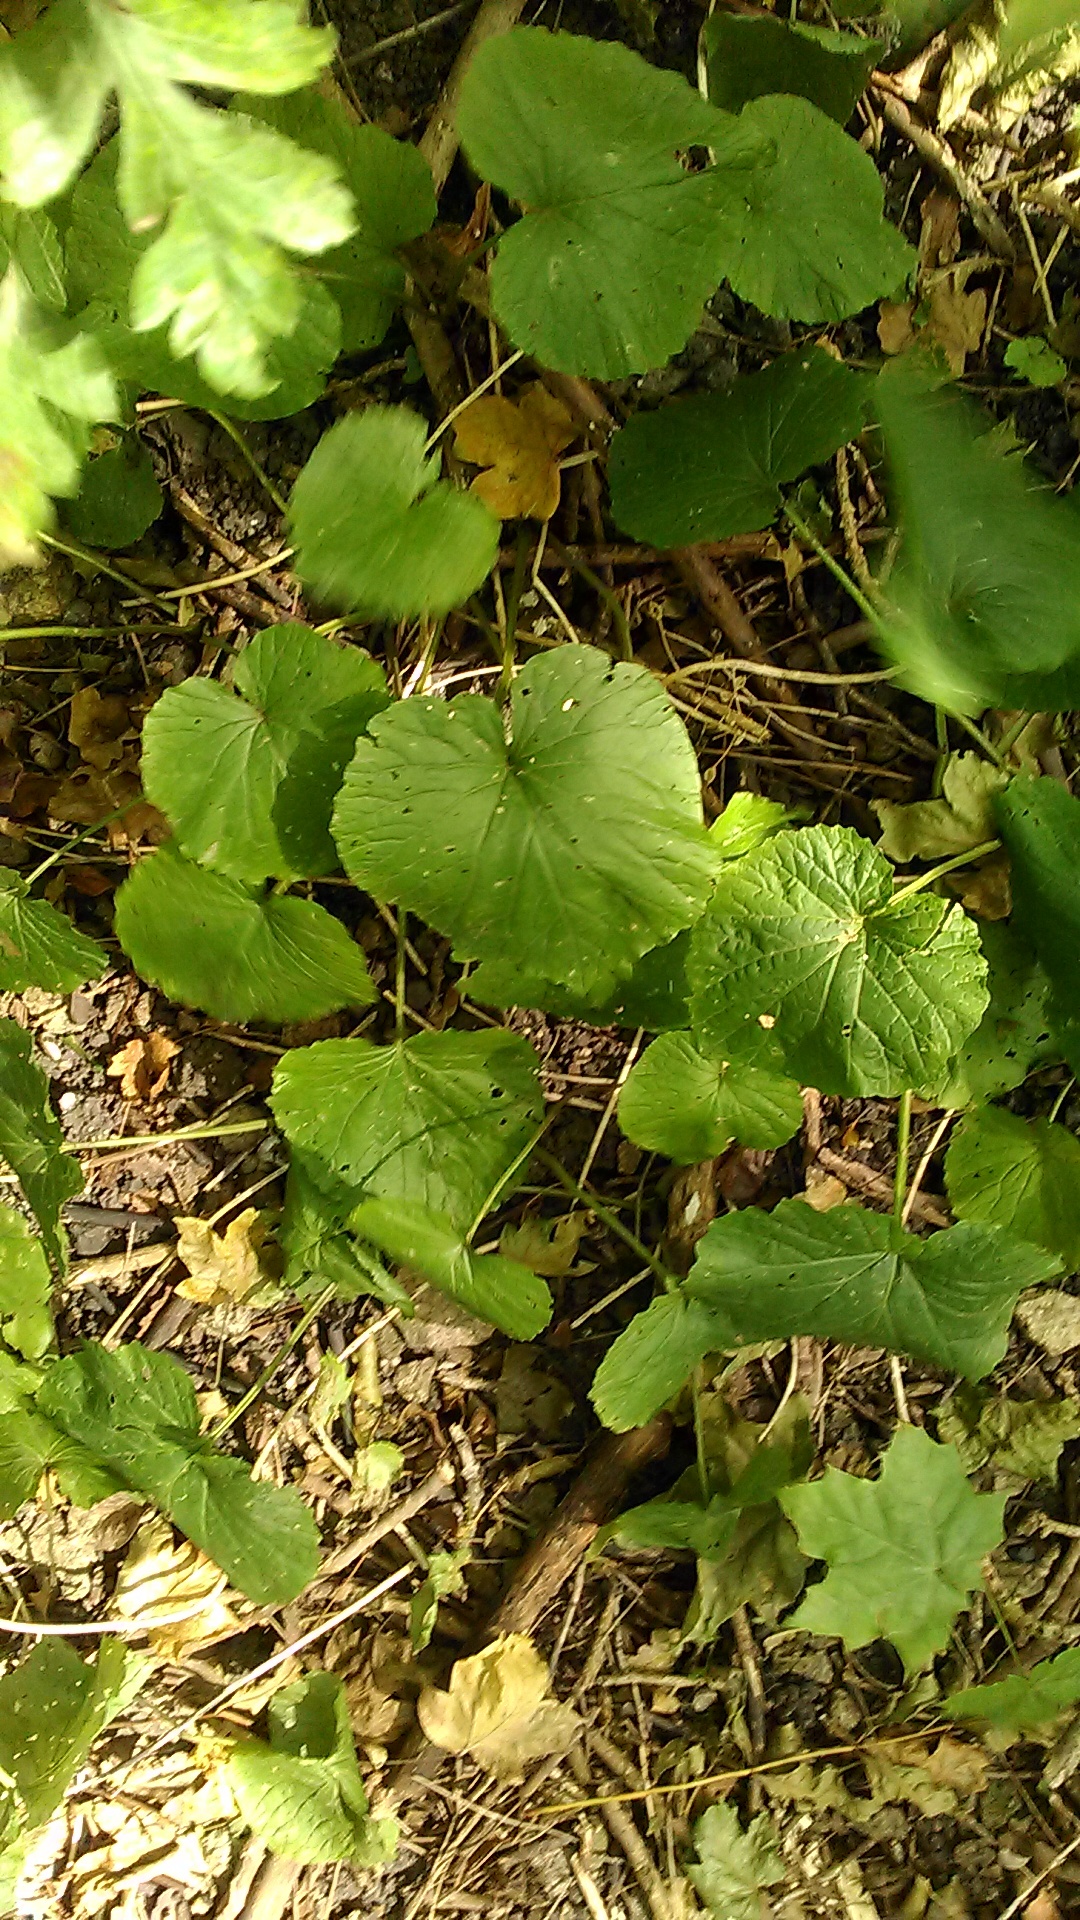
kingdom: Plantae
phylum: Tracheophyta
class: Magnoliopsida
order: Brassicales
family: Brassicaceae
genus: Alliaria
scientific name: Alliaria petiolata
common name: Garlic mustard
